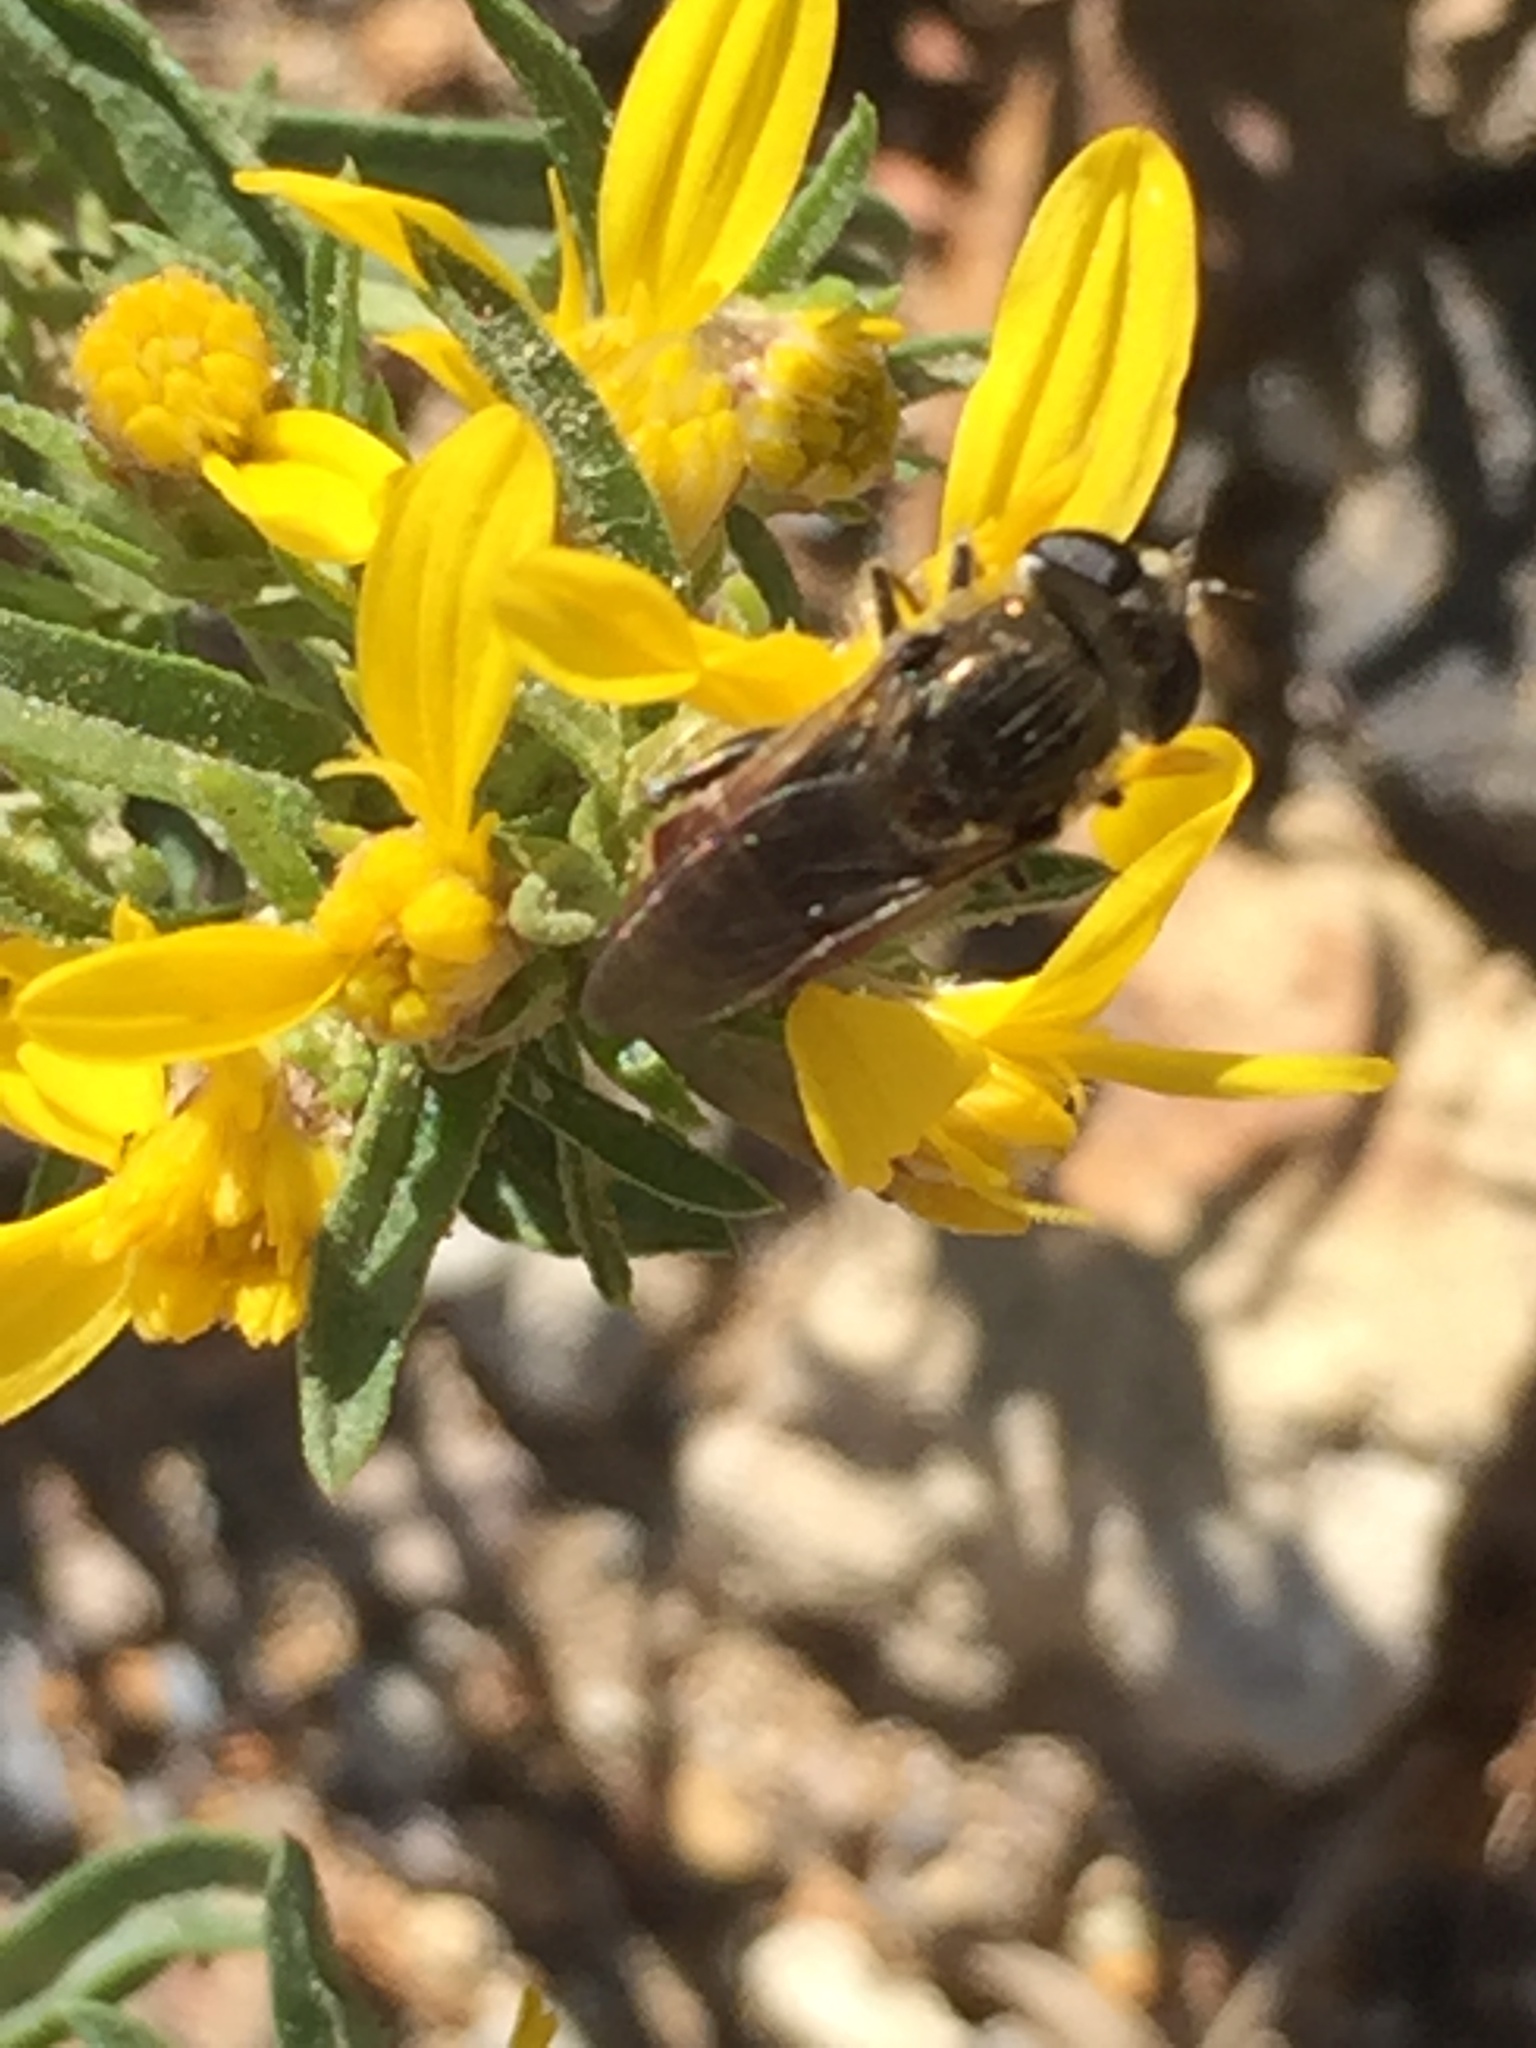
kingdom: Animalia
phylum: Arthropoda
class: Insecta
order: Diptera
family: Syrphidae
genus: Asemosyrphus
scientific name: Asemosyrphus polygrammus
